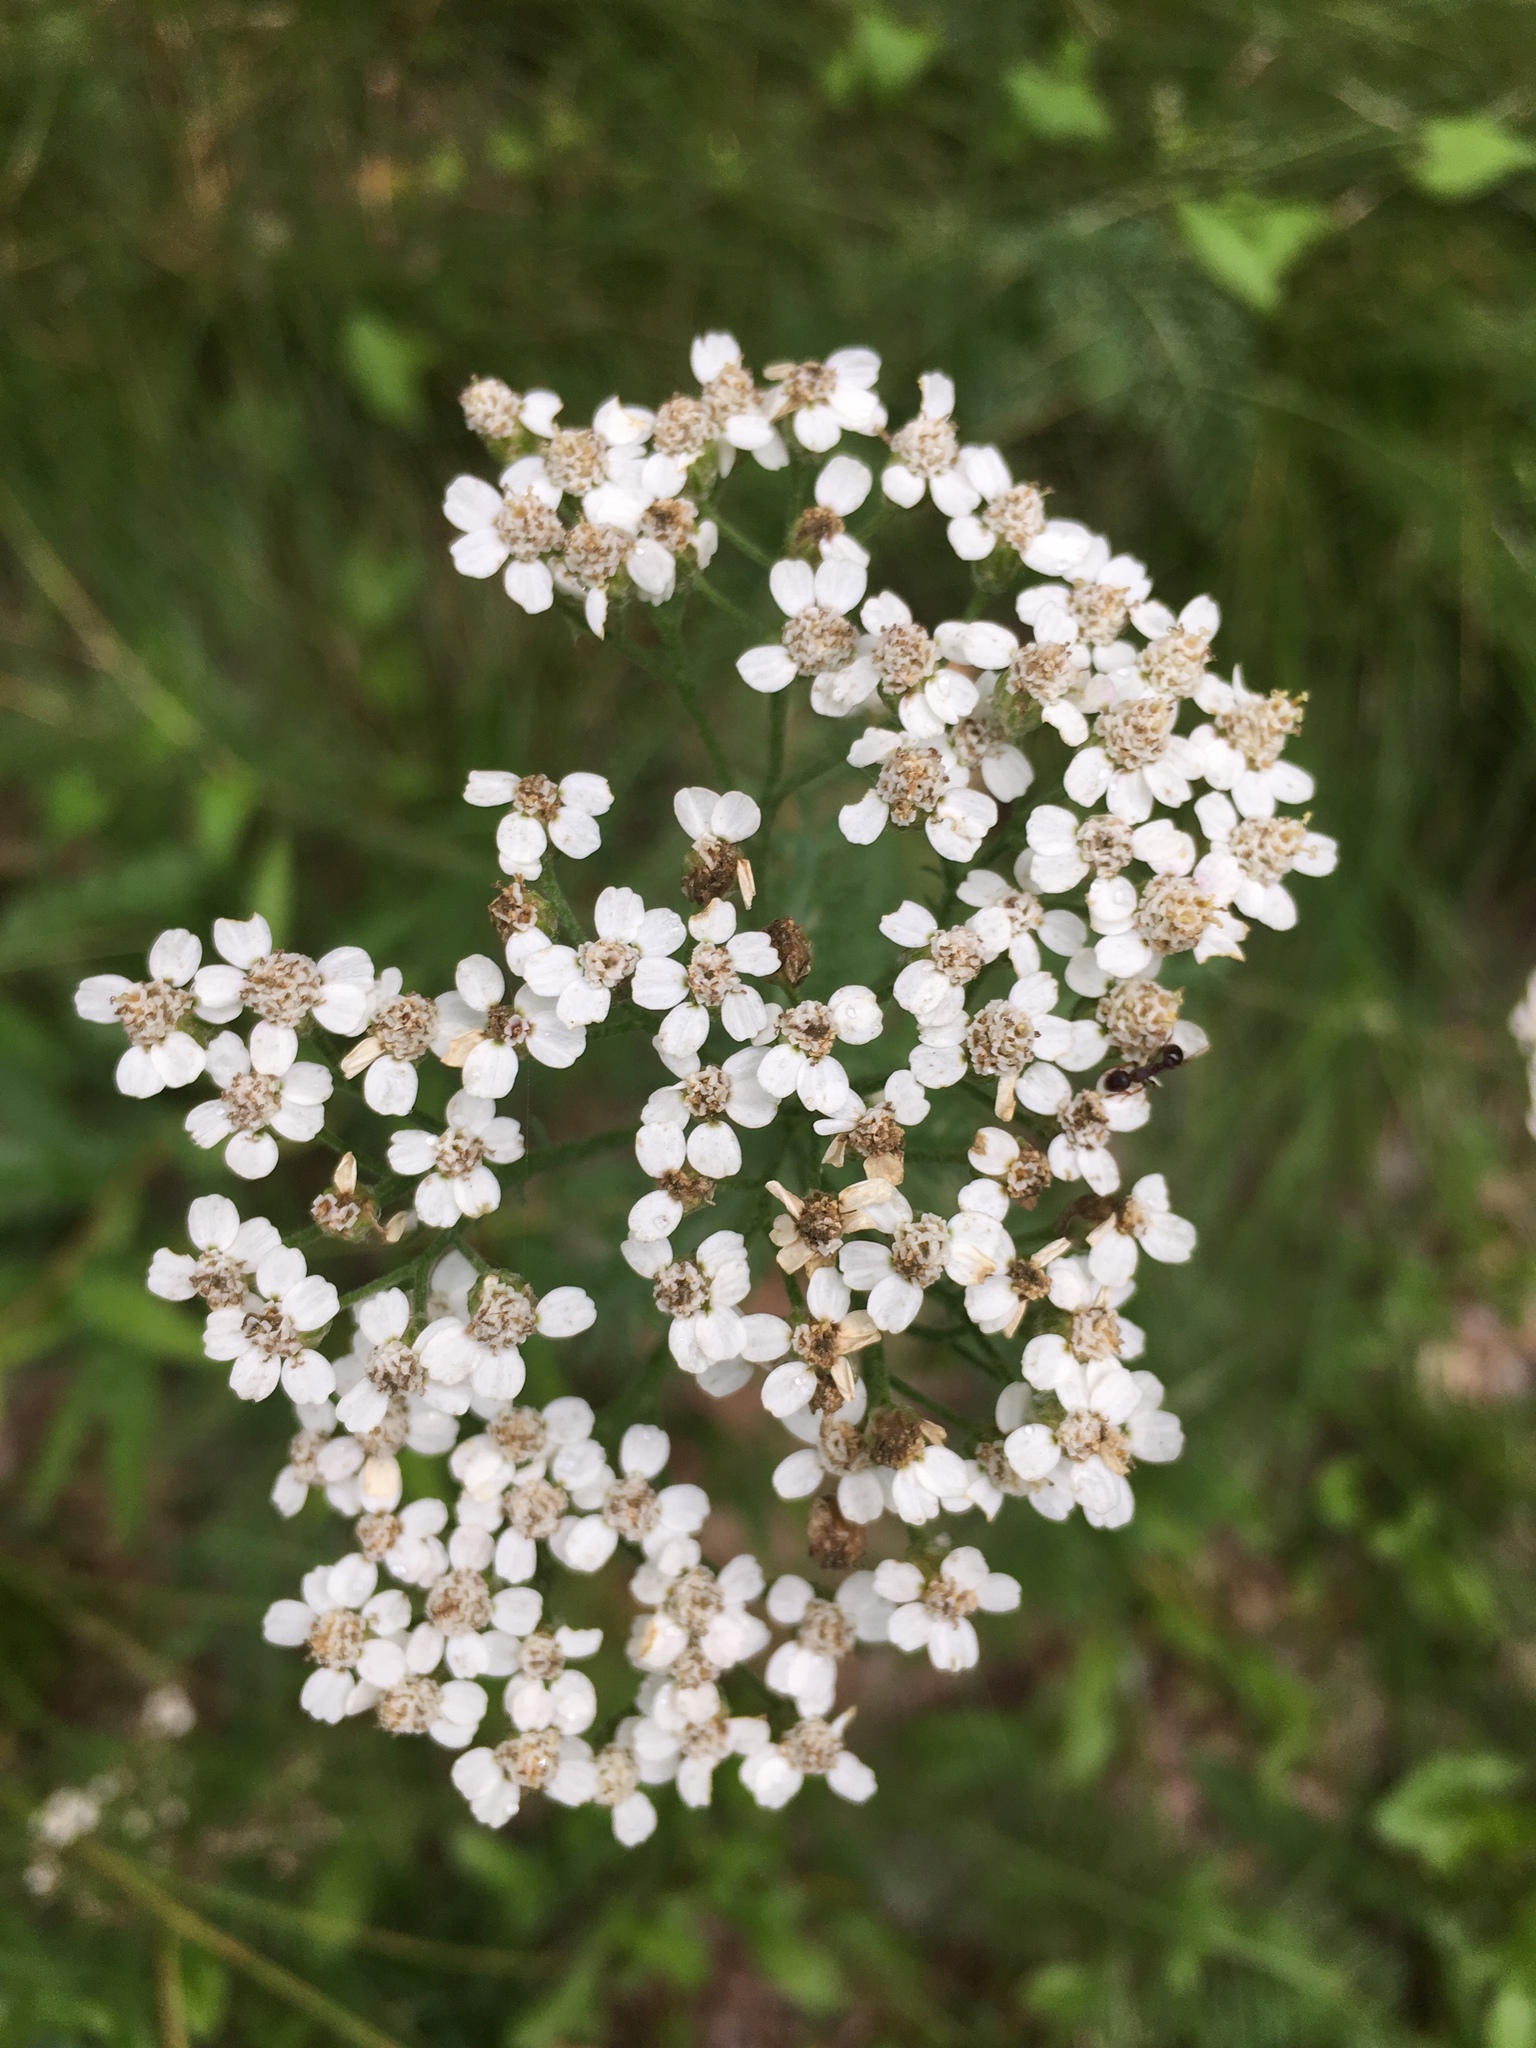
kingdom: Plantae
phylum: Tracheophyta
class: Magnoliopsida
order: Asterales
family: Asteraceae
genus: Achillea
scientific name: Achillea millefolium
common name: Yarrow
